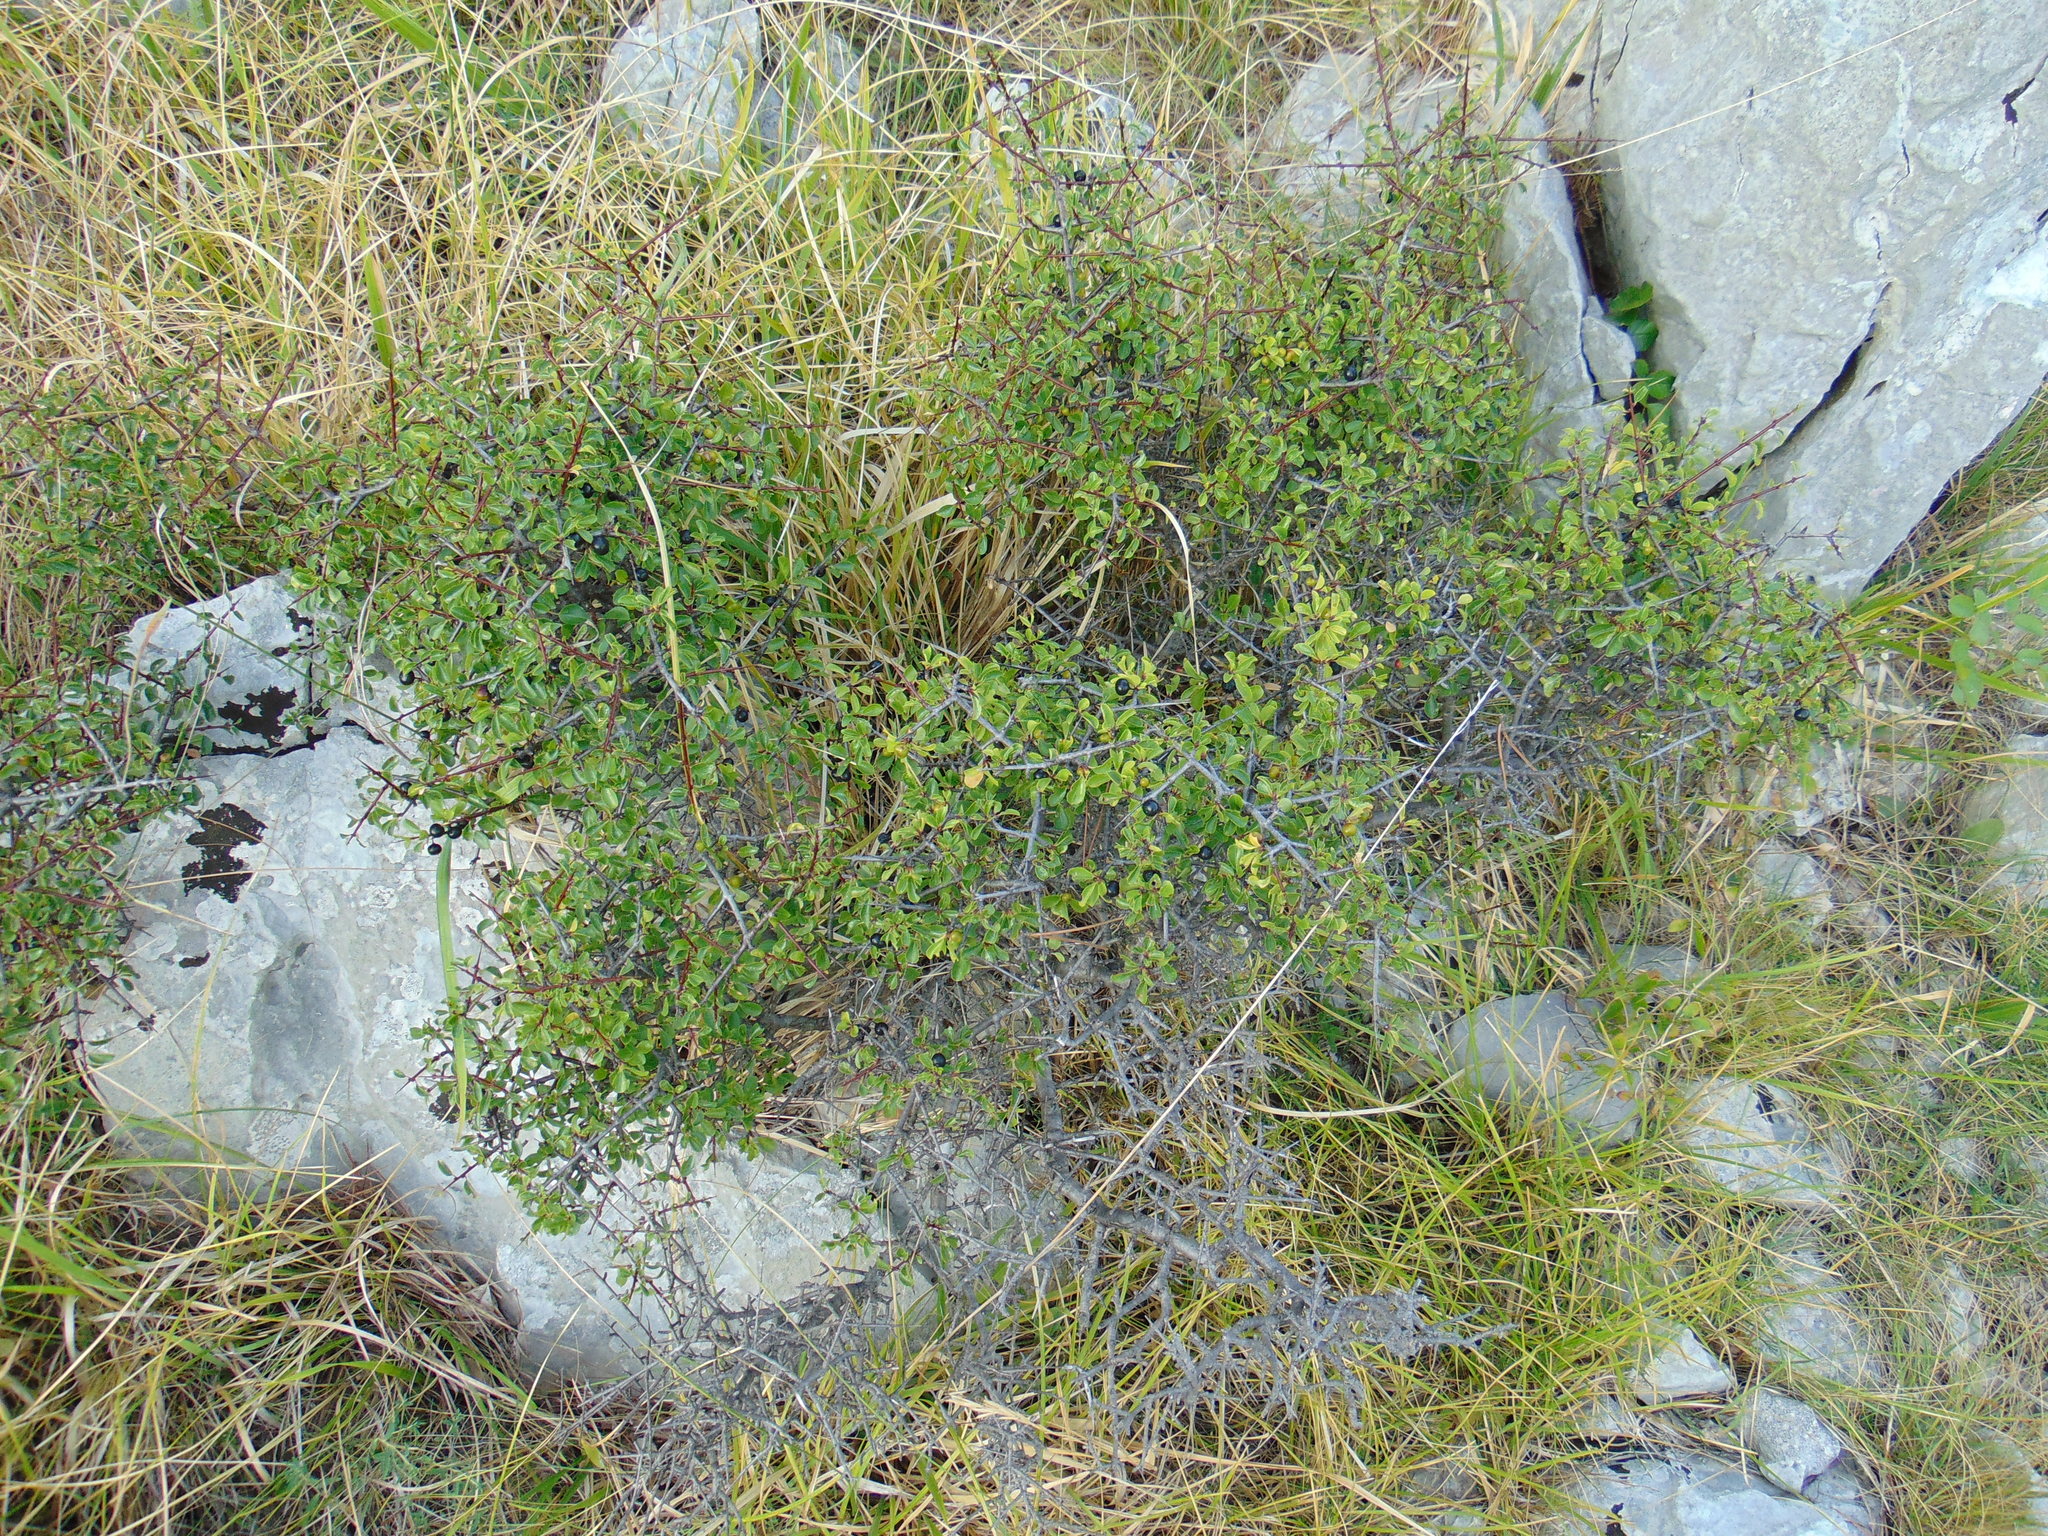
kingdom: Plantae
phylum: Tracheophyta
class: Magnoliopsida
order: Rosales
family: Rhamnaceae
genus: Rhamnus
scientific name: Rhamnus intermedia
